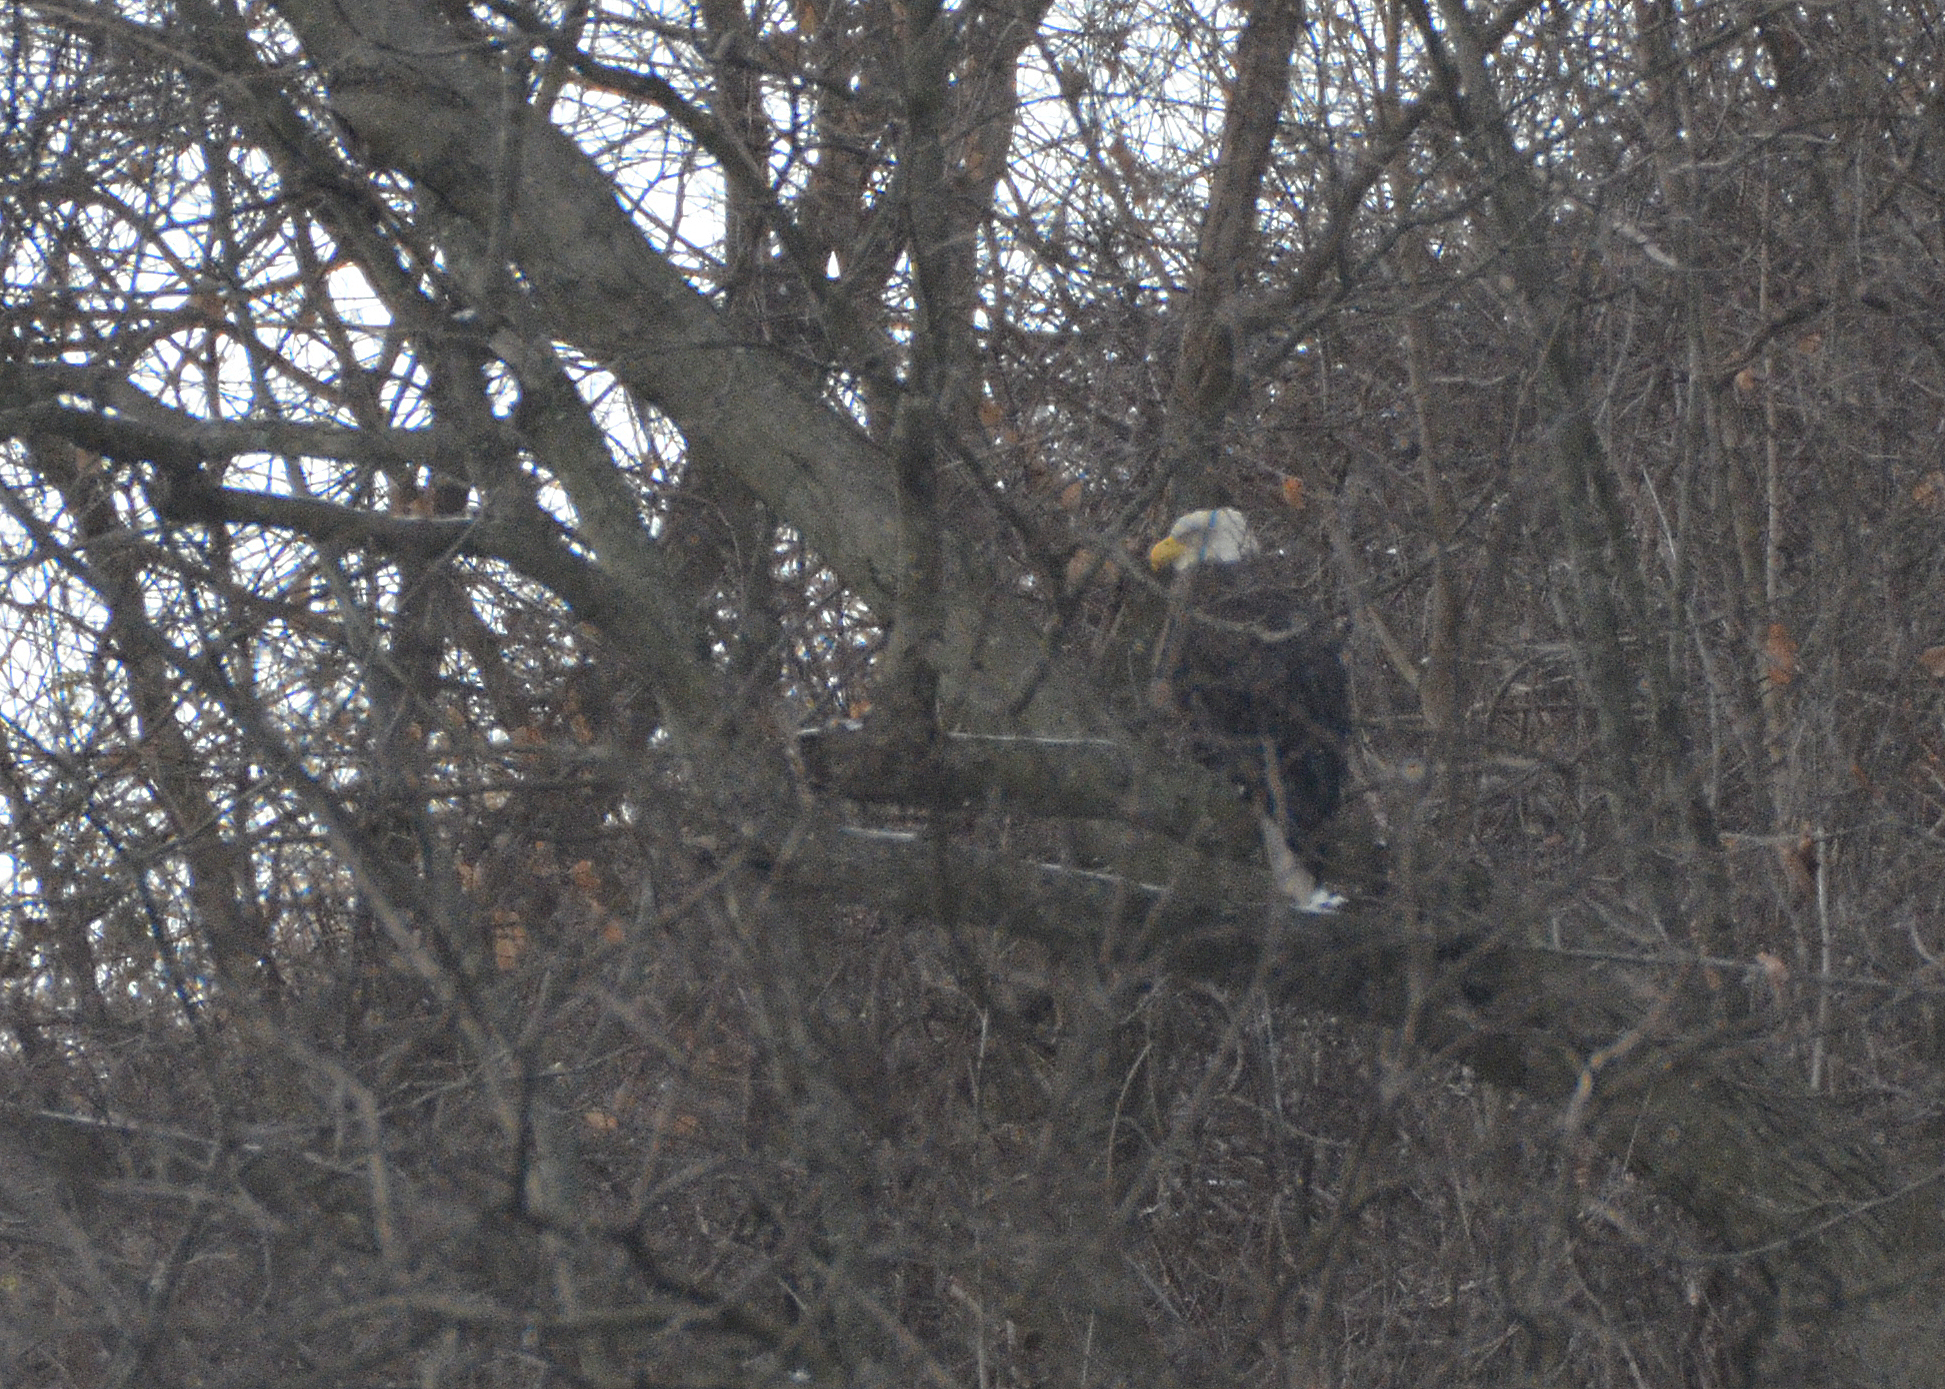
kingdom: Animalia
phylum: Chordata
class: Aves
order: Accipitriformes
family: Accipitridae
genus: Haliaeetus
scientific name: Haliaeetus leucocephalus
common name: Bald eagle
